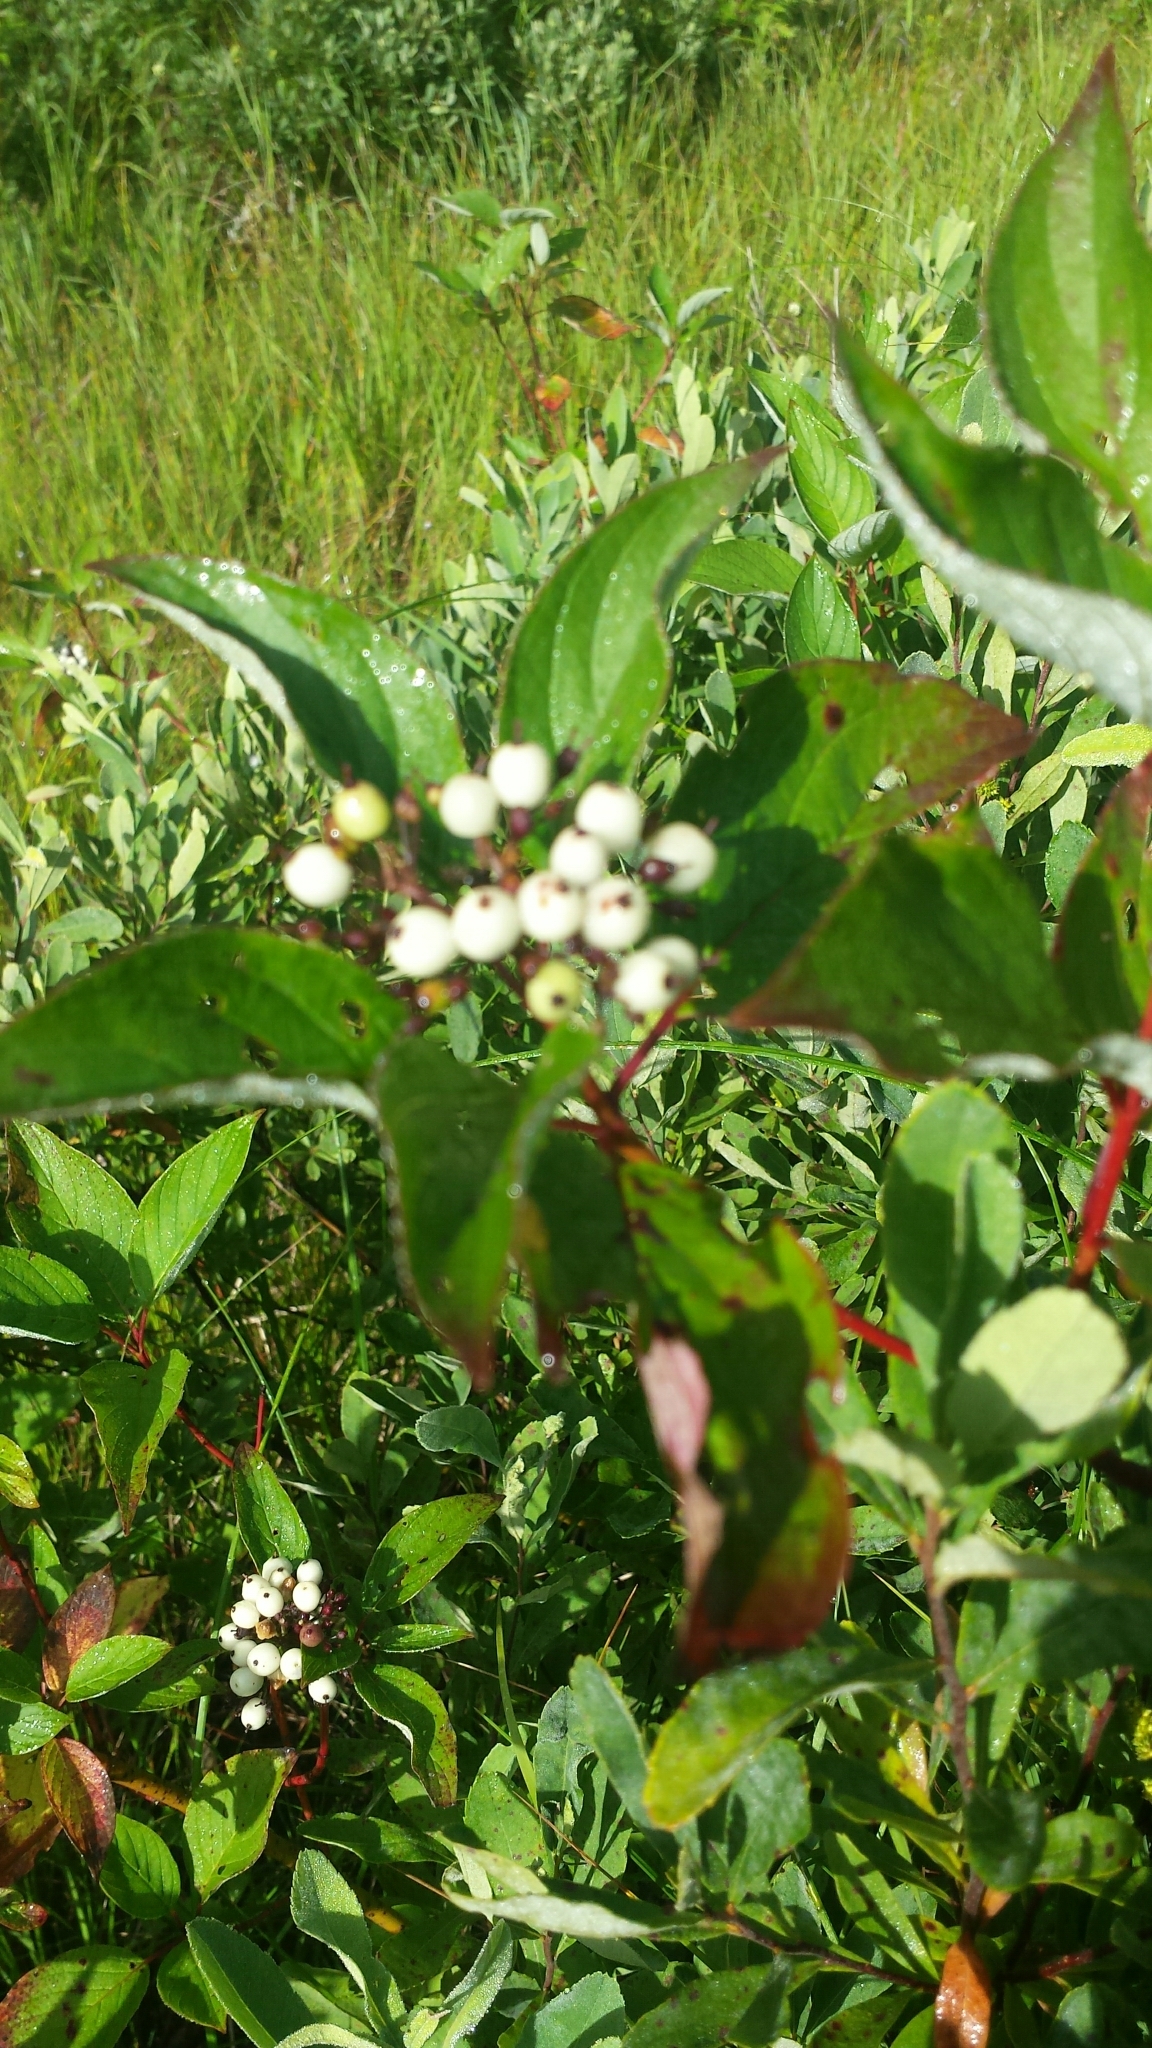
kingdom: Plantae
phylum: Tracheophyta
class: Magnoliopsida
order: Cornales
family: Cornaceae
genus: Cornus
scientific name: Cornus sericea
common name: Red-osier dogwood
